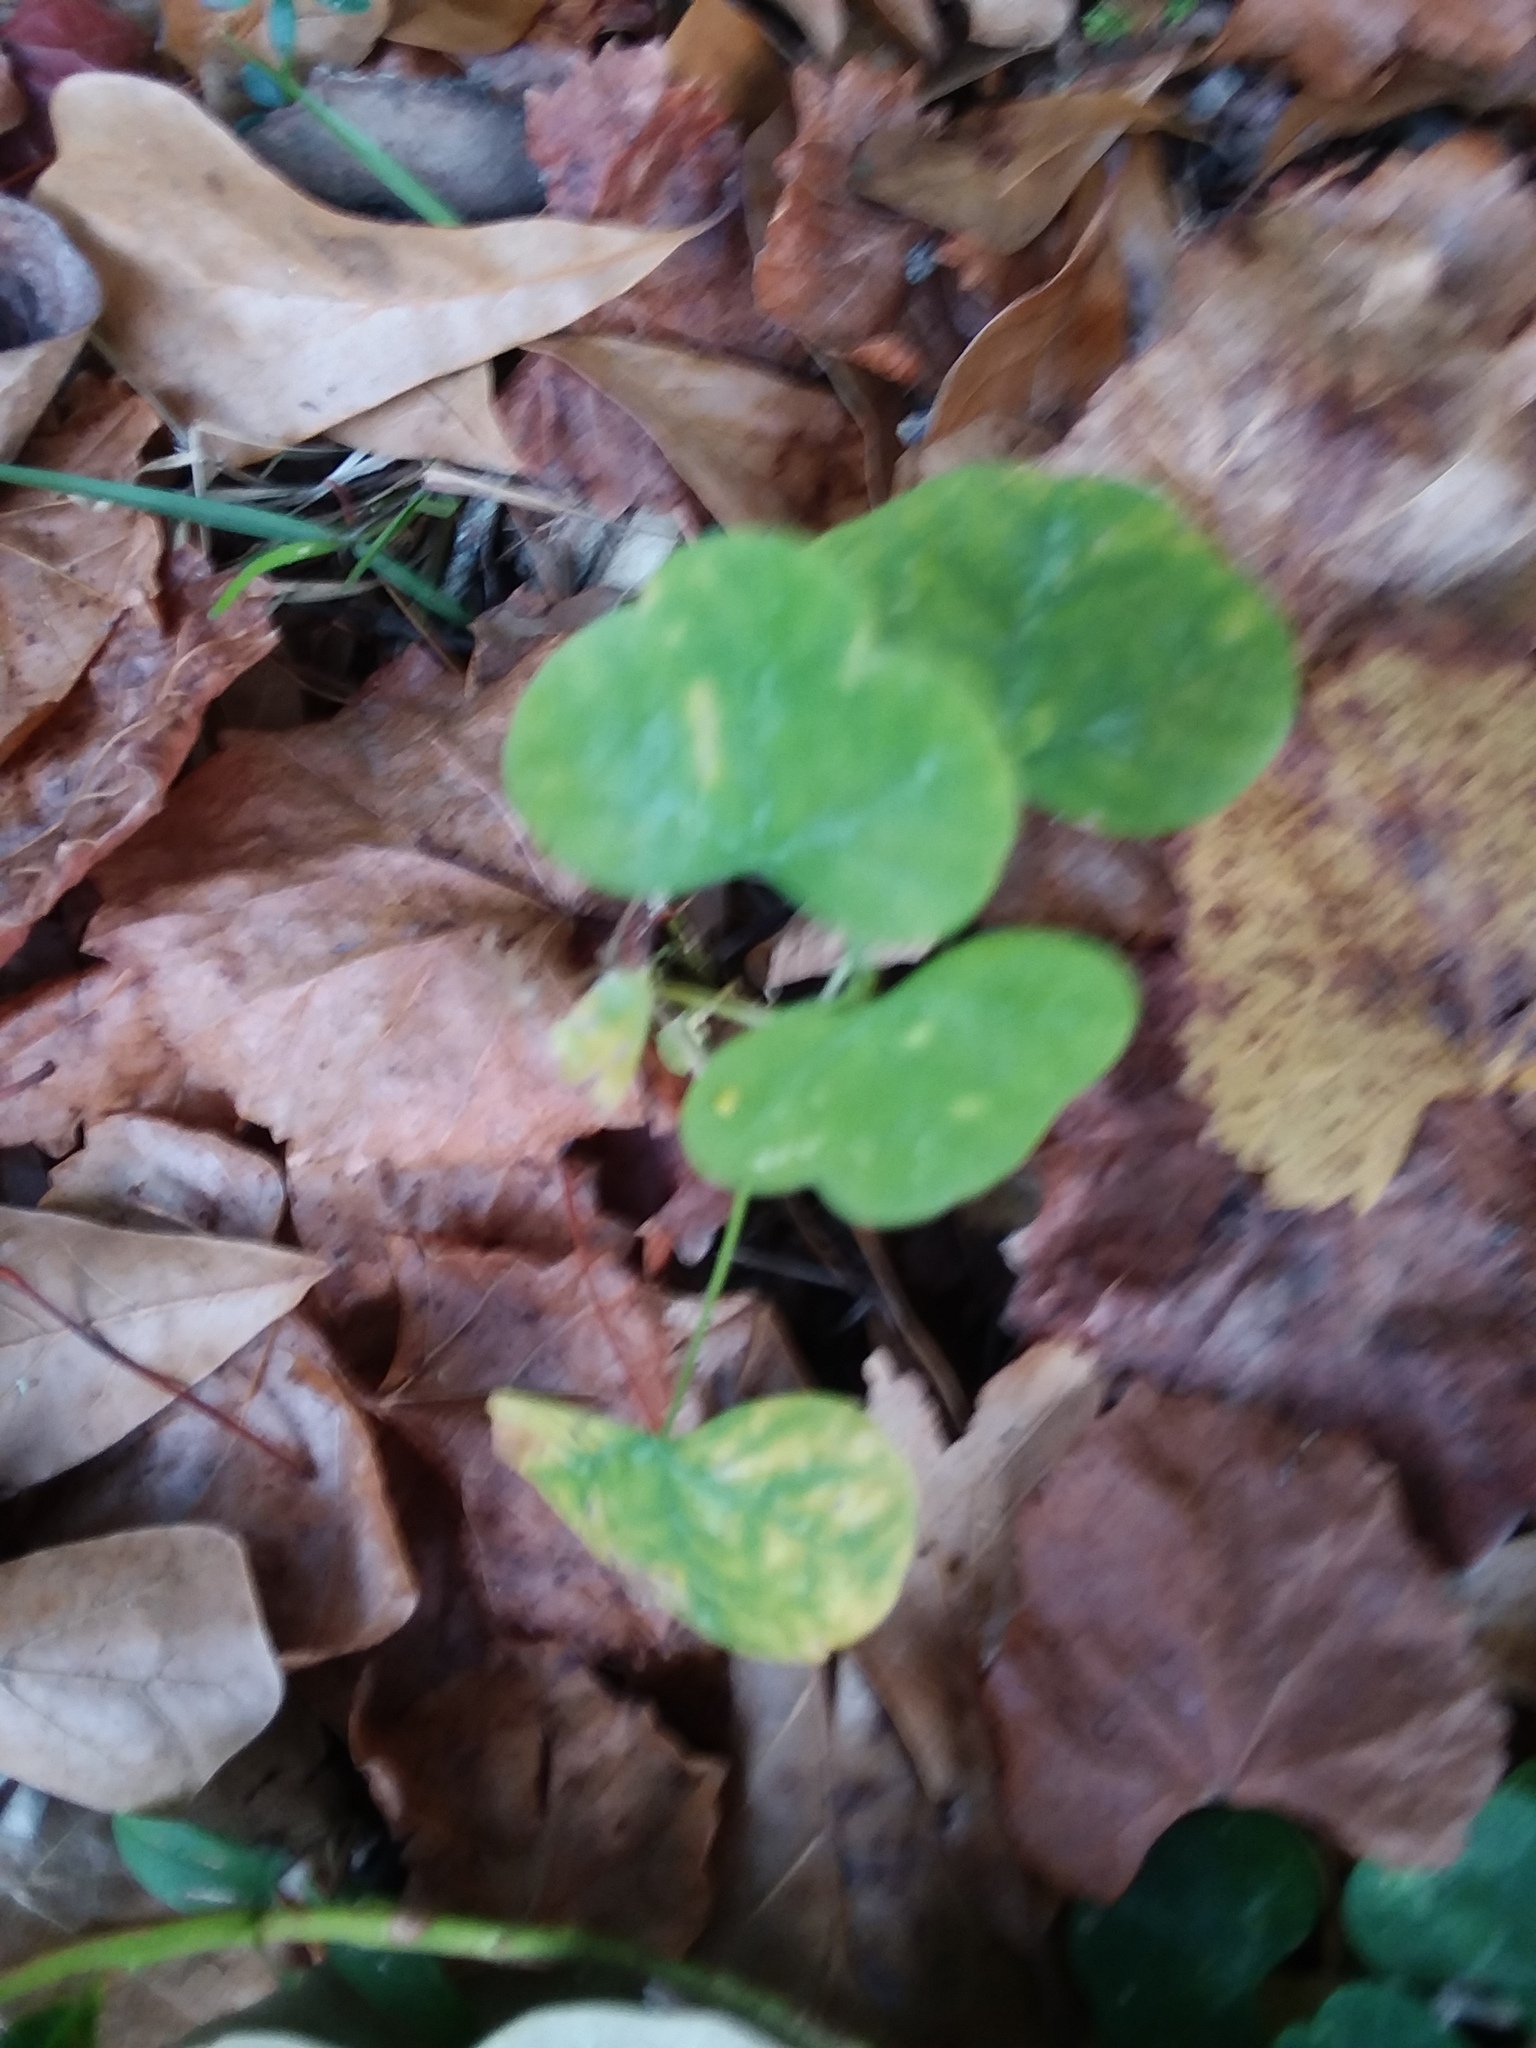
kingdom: Plantae
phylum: Tracheophyta
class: Magnoliopsida
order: Malpighiales
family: Passifloraceae
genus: Passiflora
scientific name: Passiflora lutea
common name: Yellow passionflower
